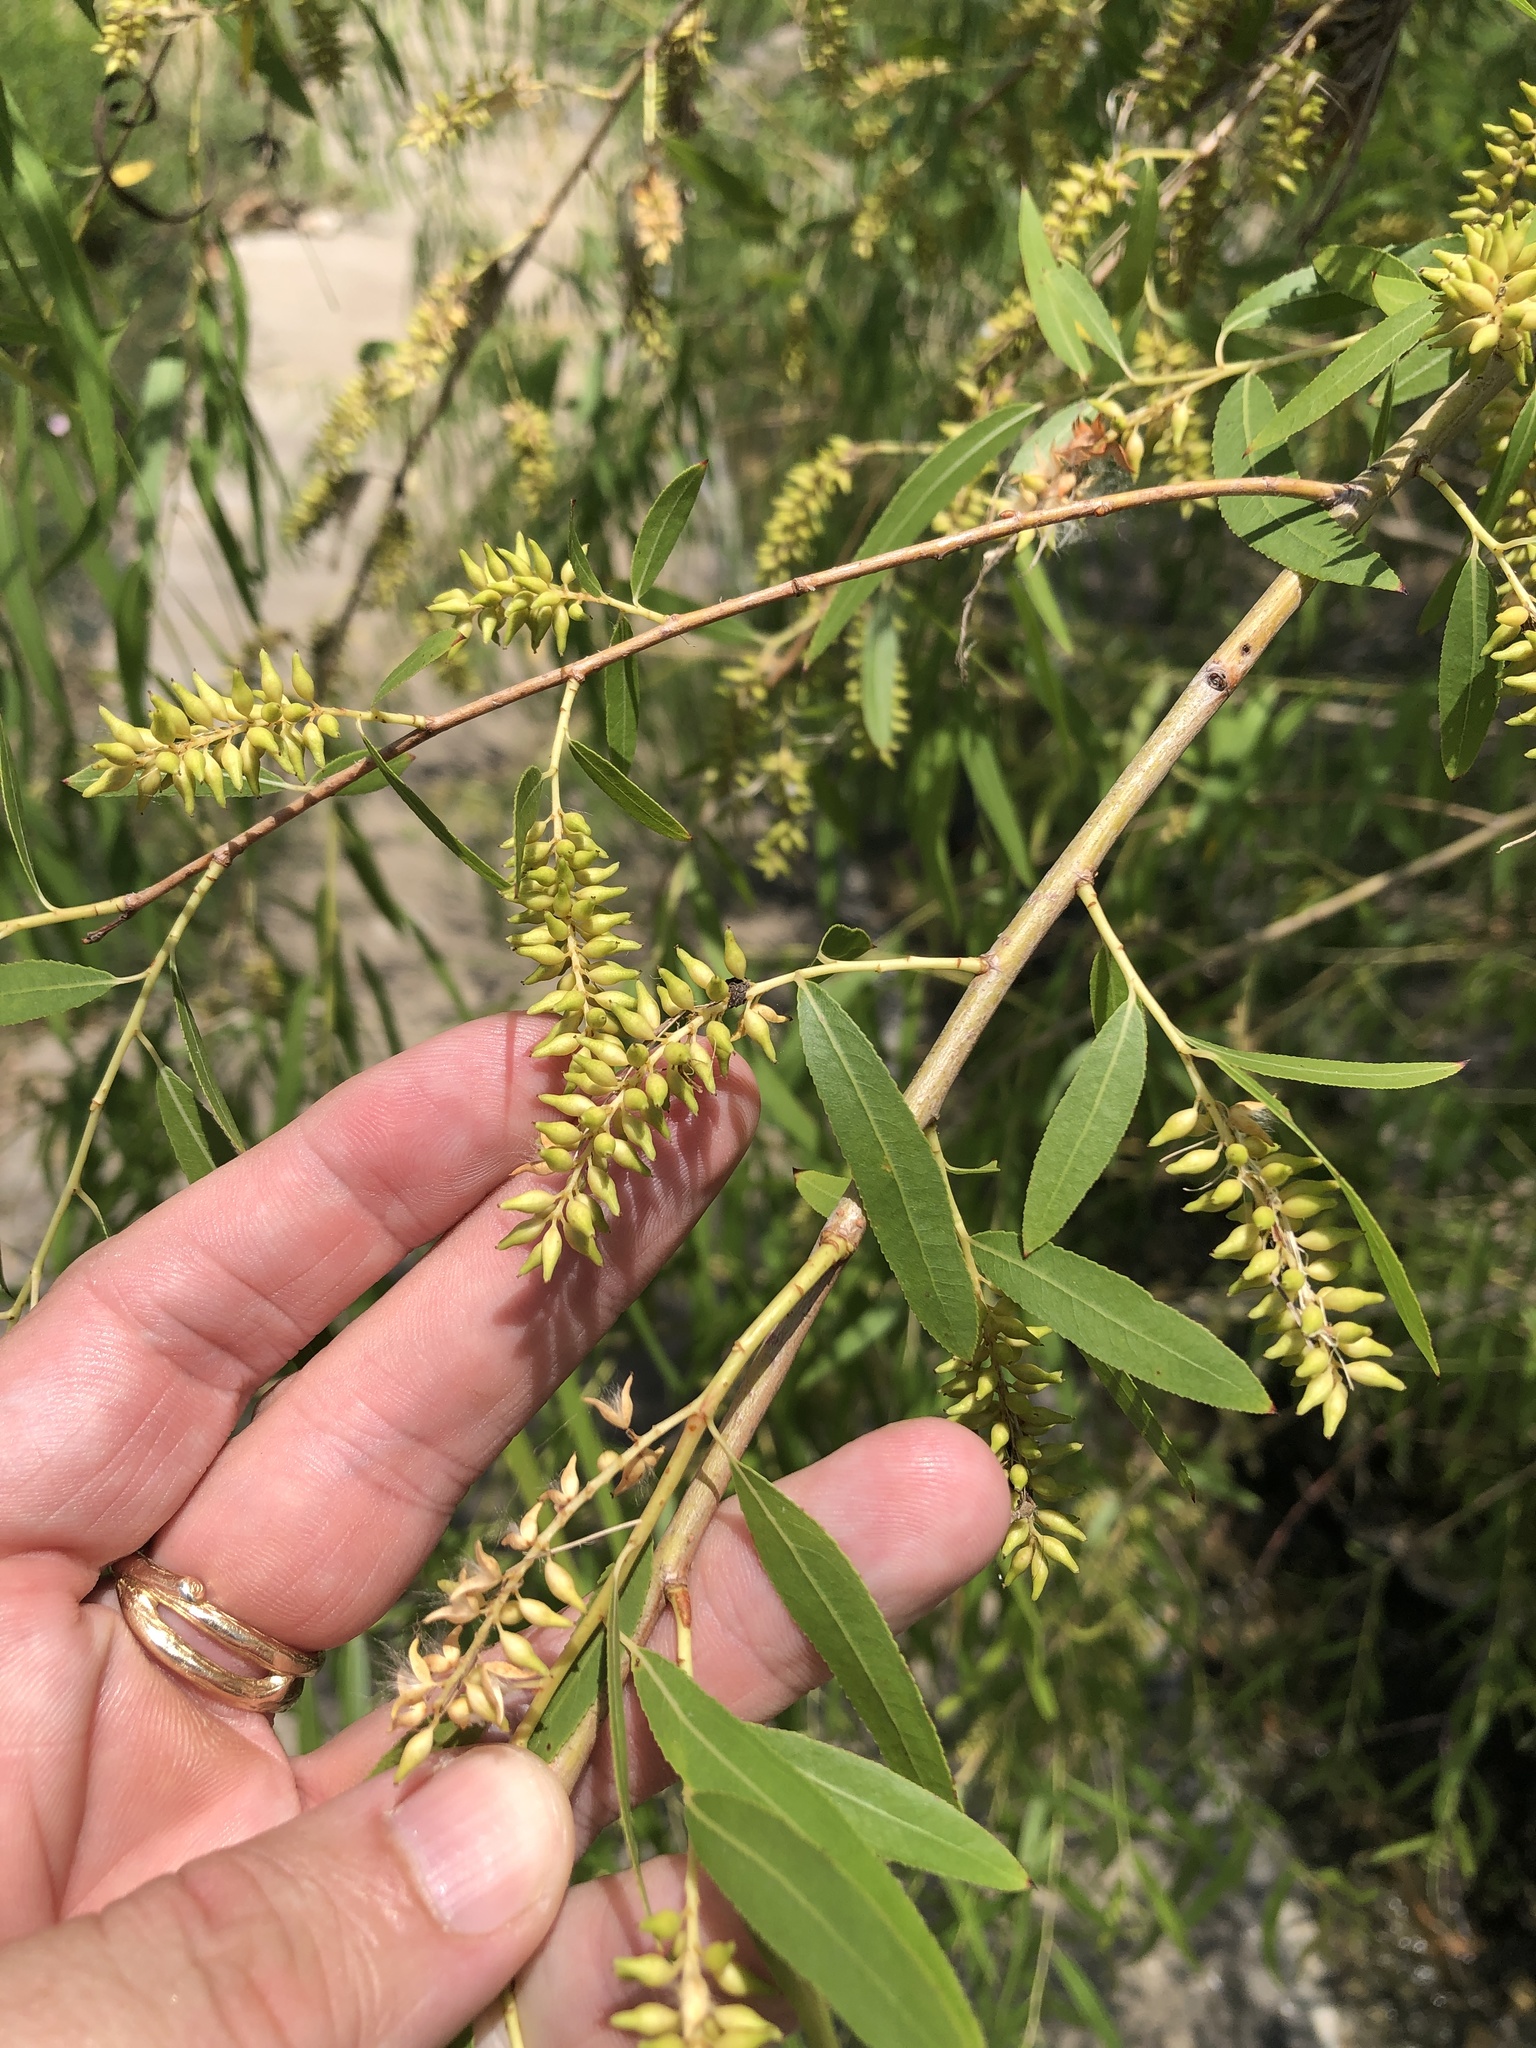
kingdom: Plantae
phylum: Tracheophyta
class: Magnoliopsida
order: Malpighiales
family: Salicaceae
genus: Salix
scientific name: Salix nigra
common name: Black willow
